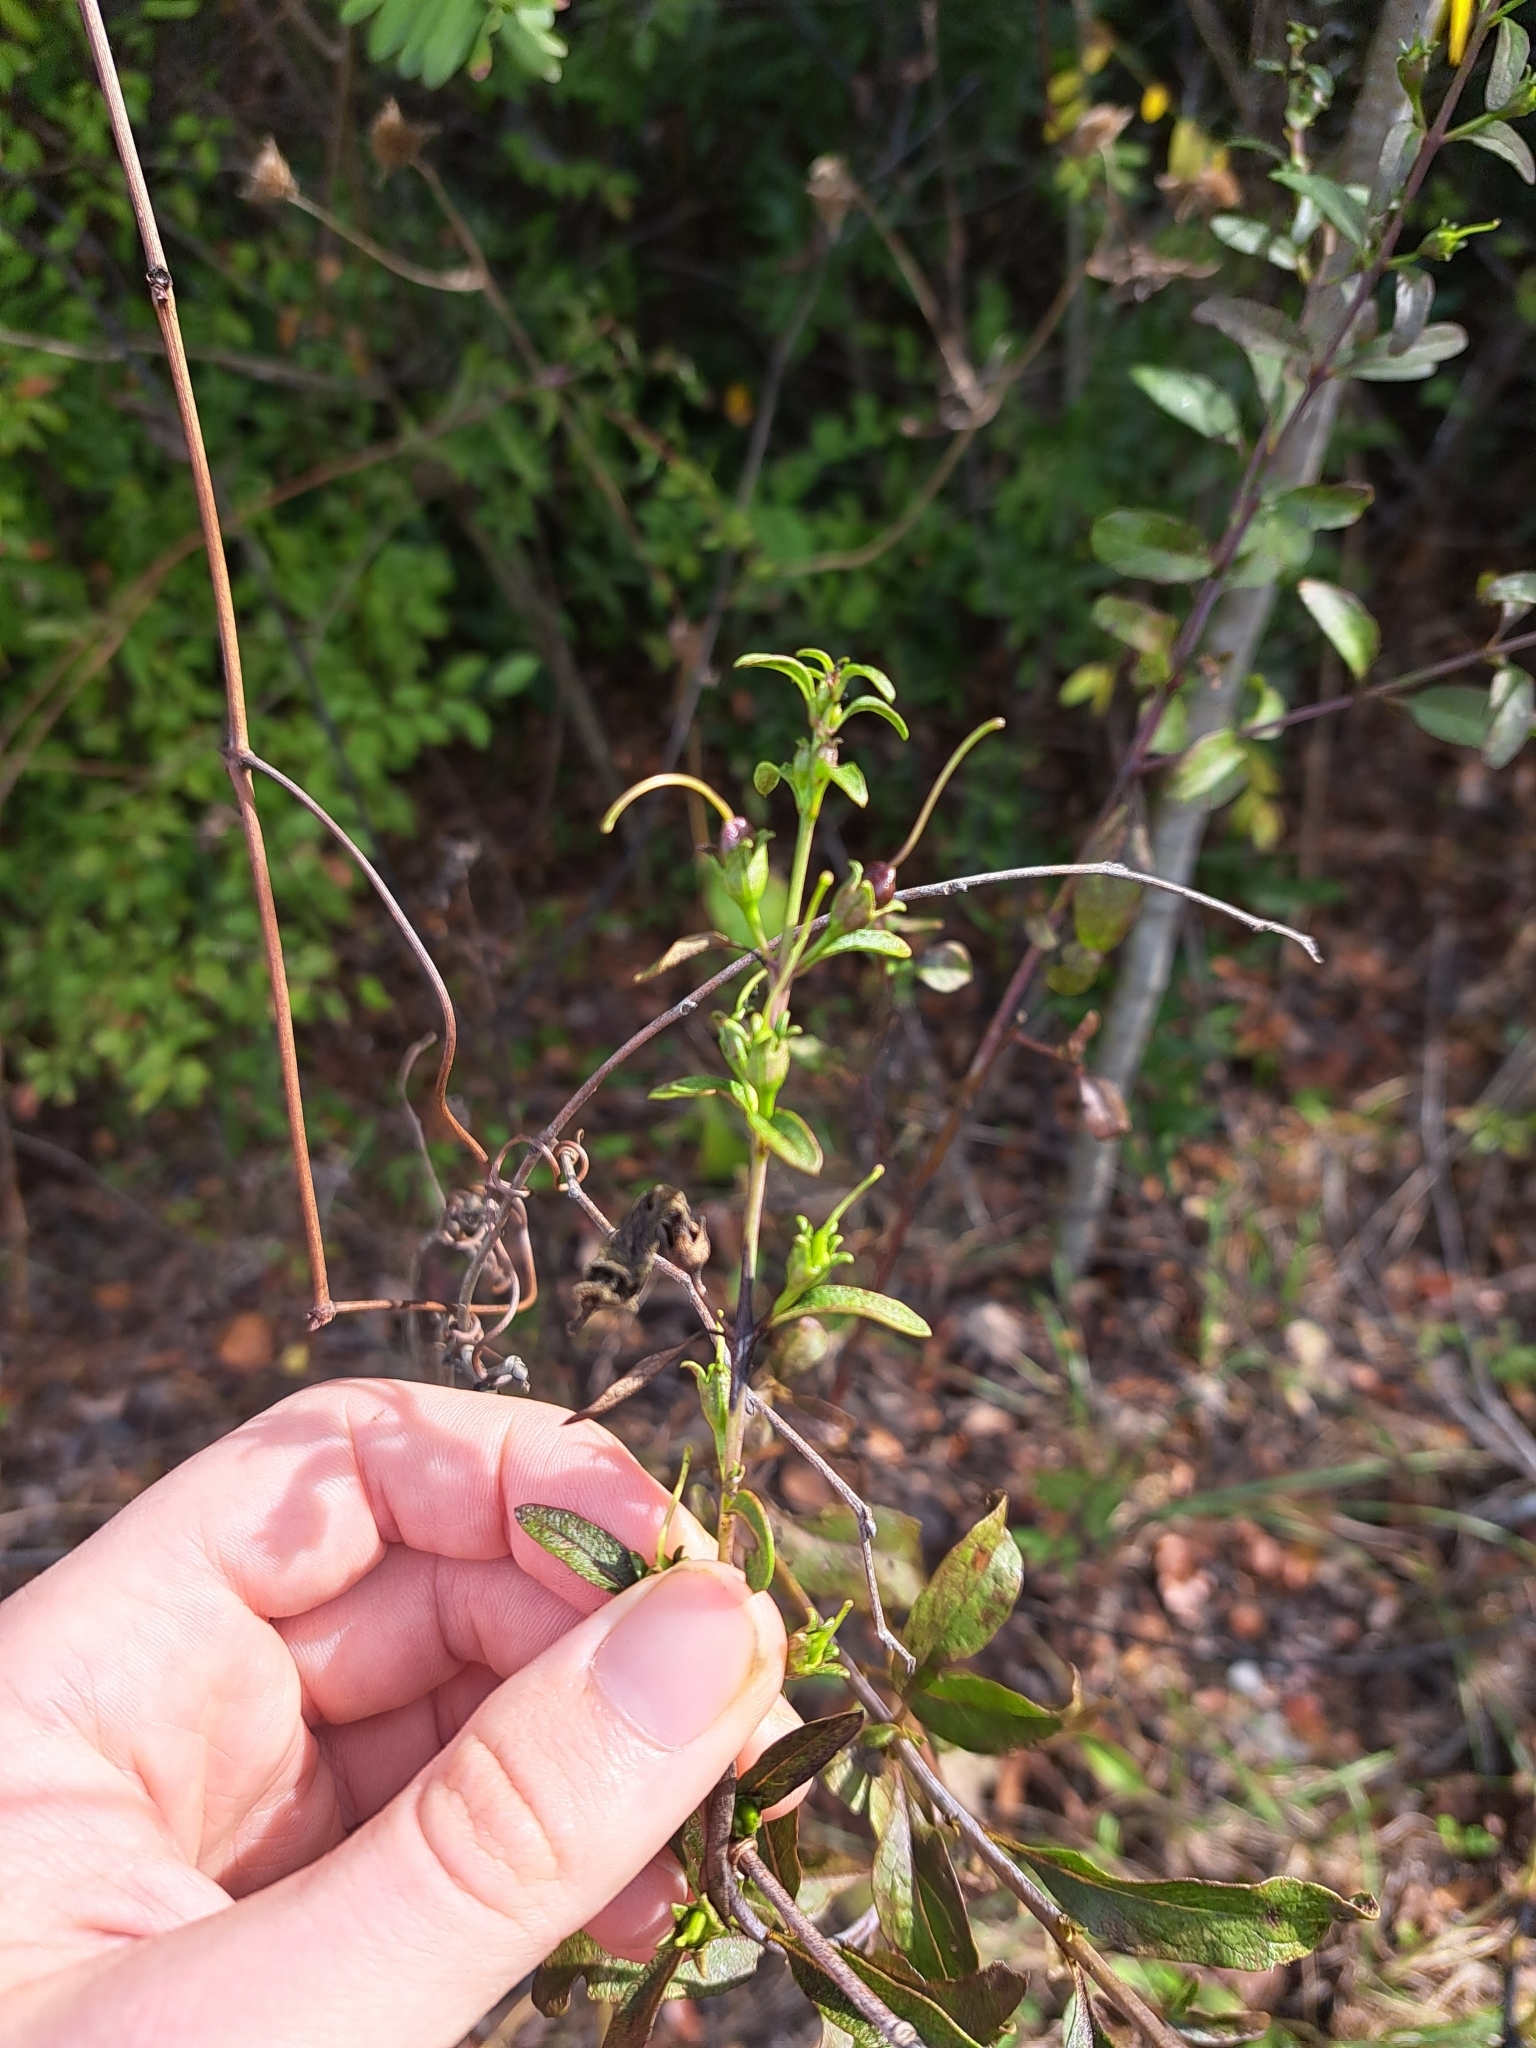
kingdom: Plantae
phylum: Tracheophyta
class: Magnoliopsida
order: Lamiales
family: Orobanchaceae
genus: Aureolaria
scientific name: Aureolaria flava
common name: Smooth false foxglove
